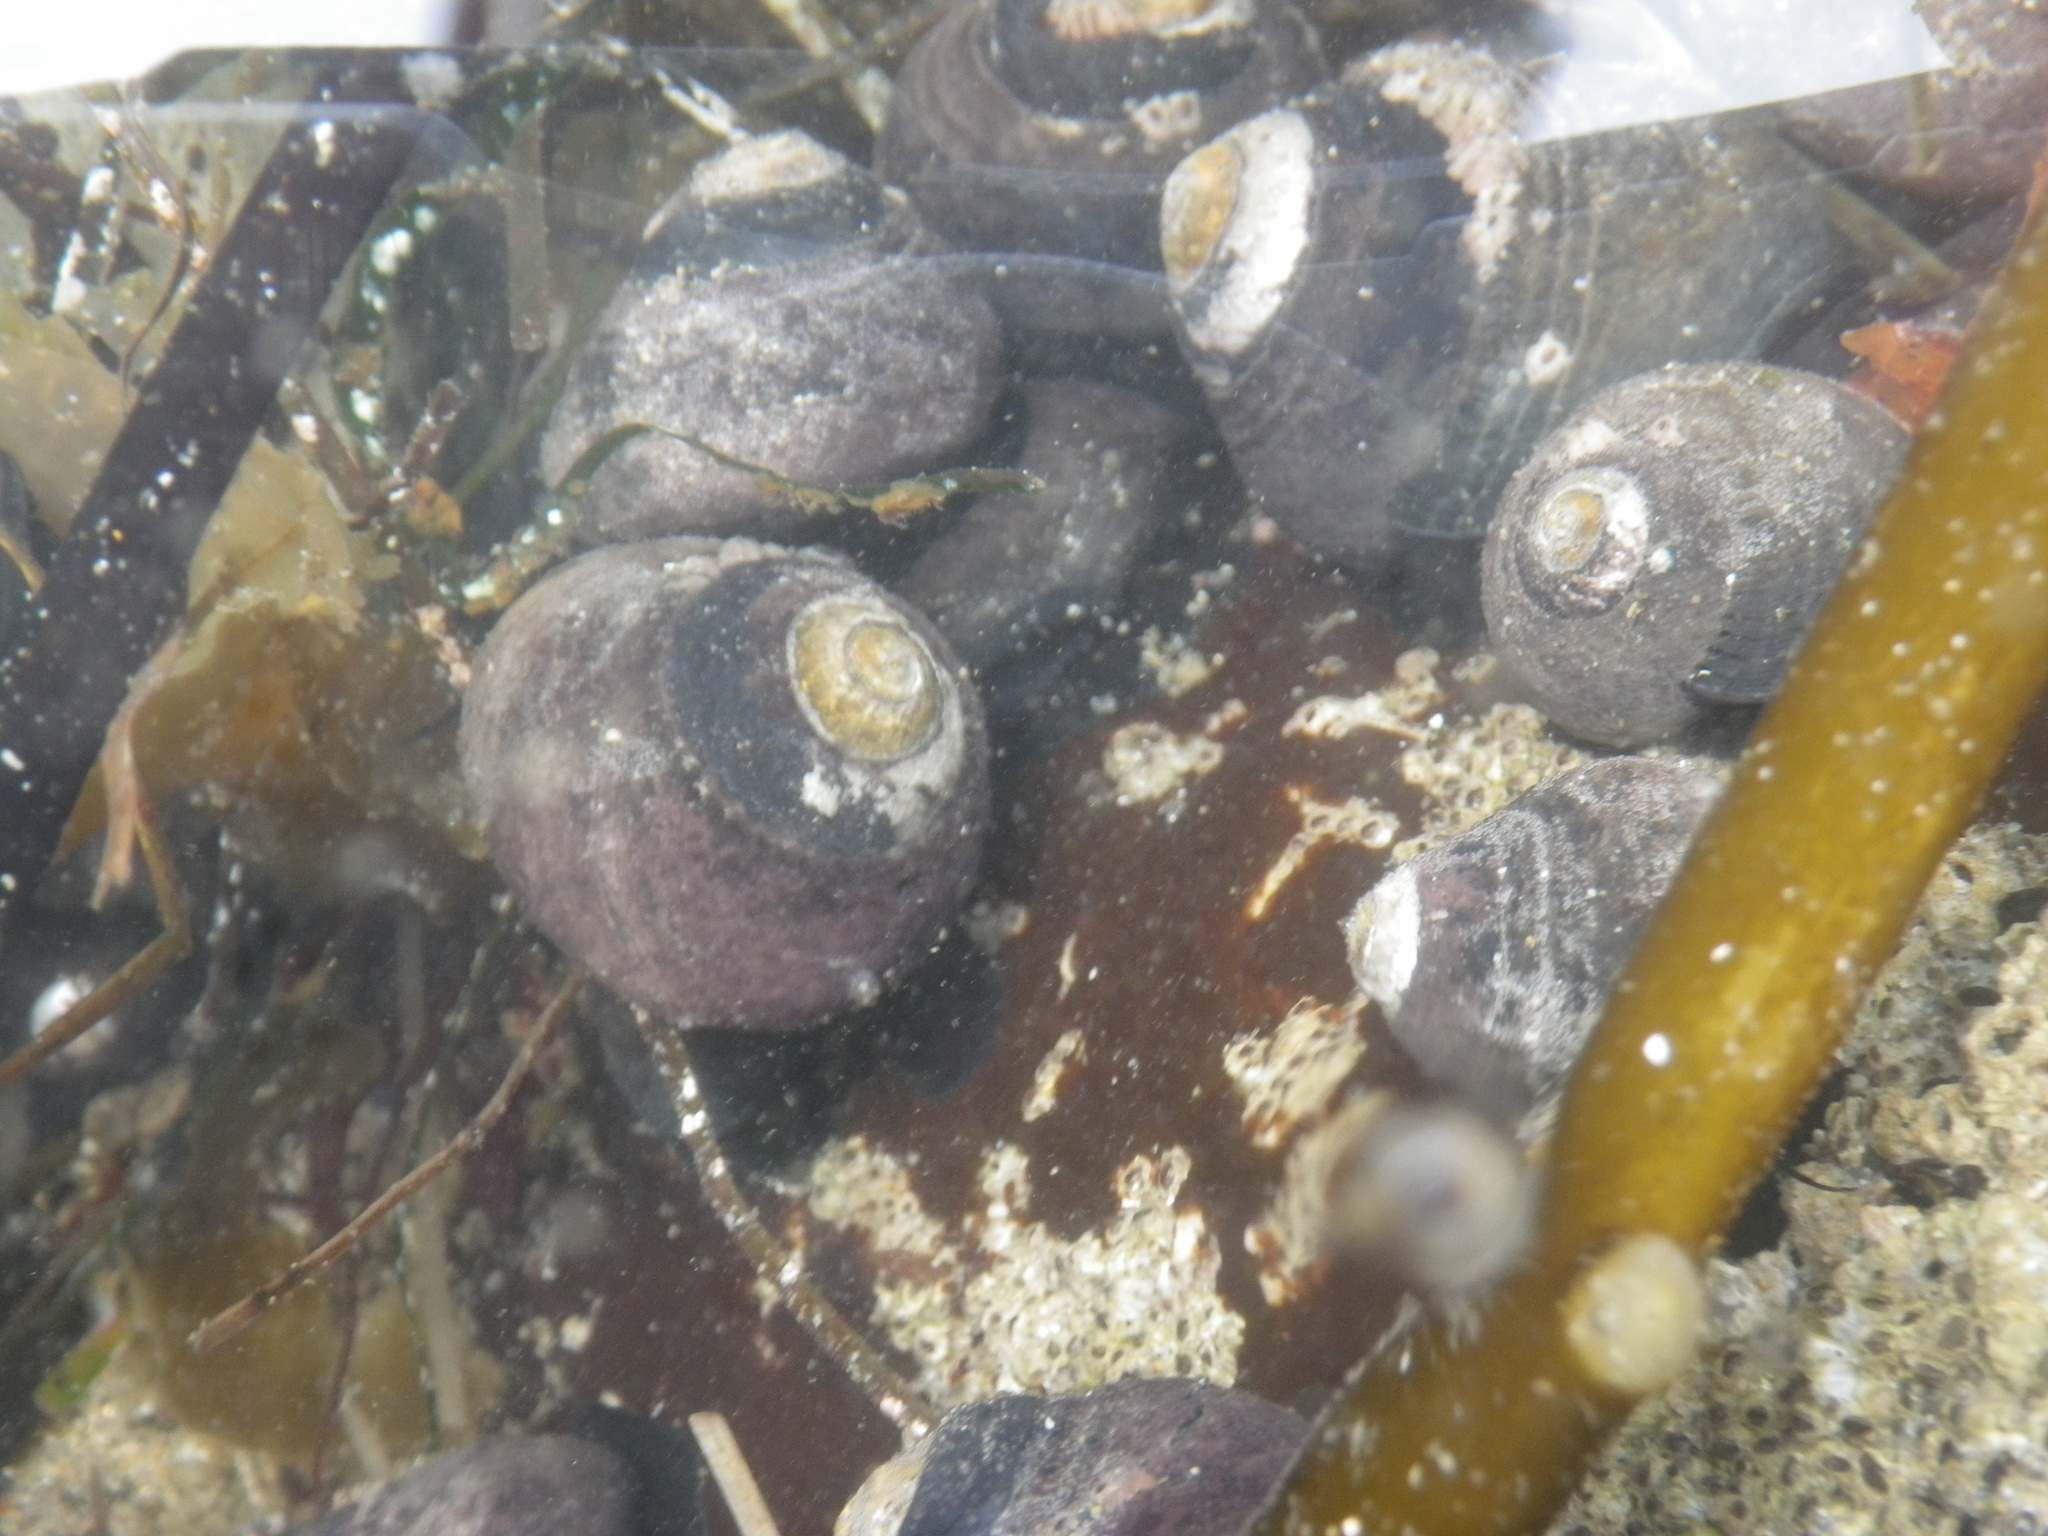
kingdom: Animalia
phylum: Mollusca
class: Gastropoda
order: Trochida
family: Tegulidae
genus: Tegula
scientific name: Tegula funebralis
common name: Black tegula
